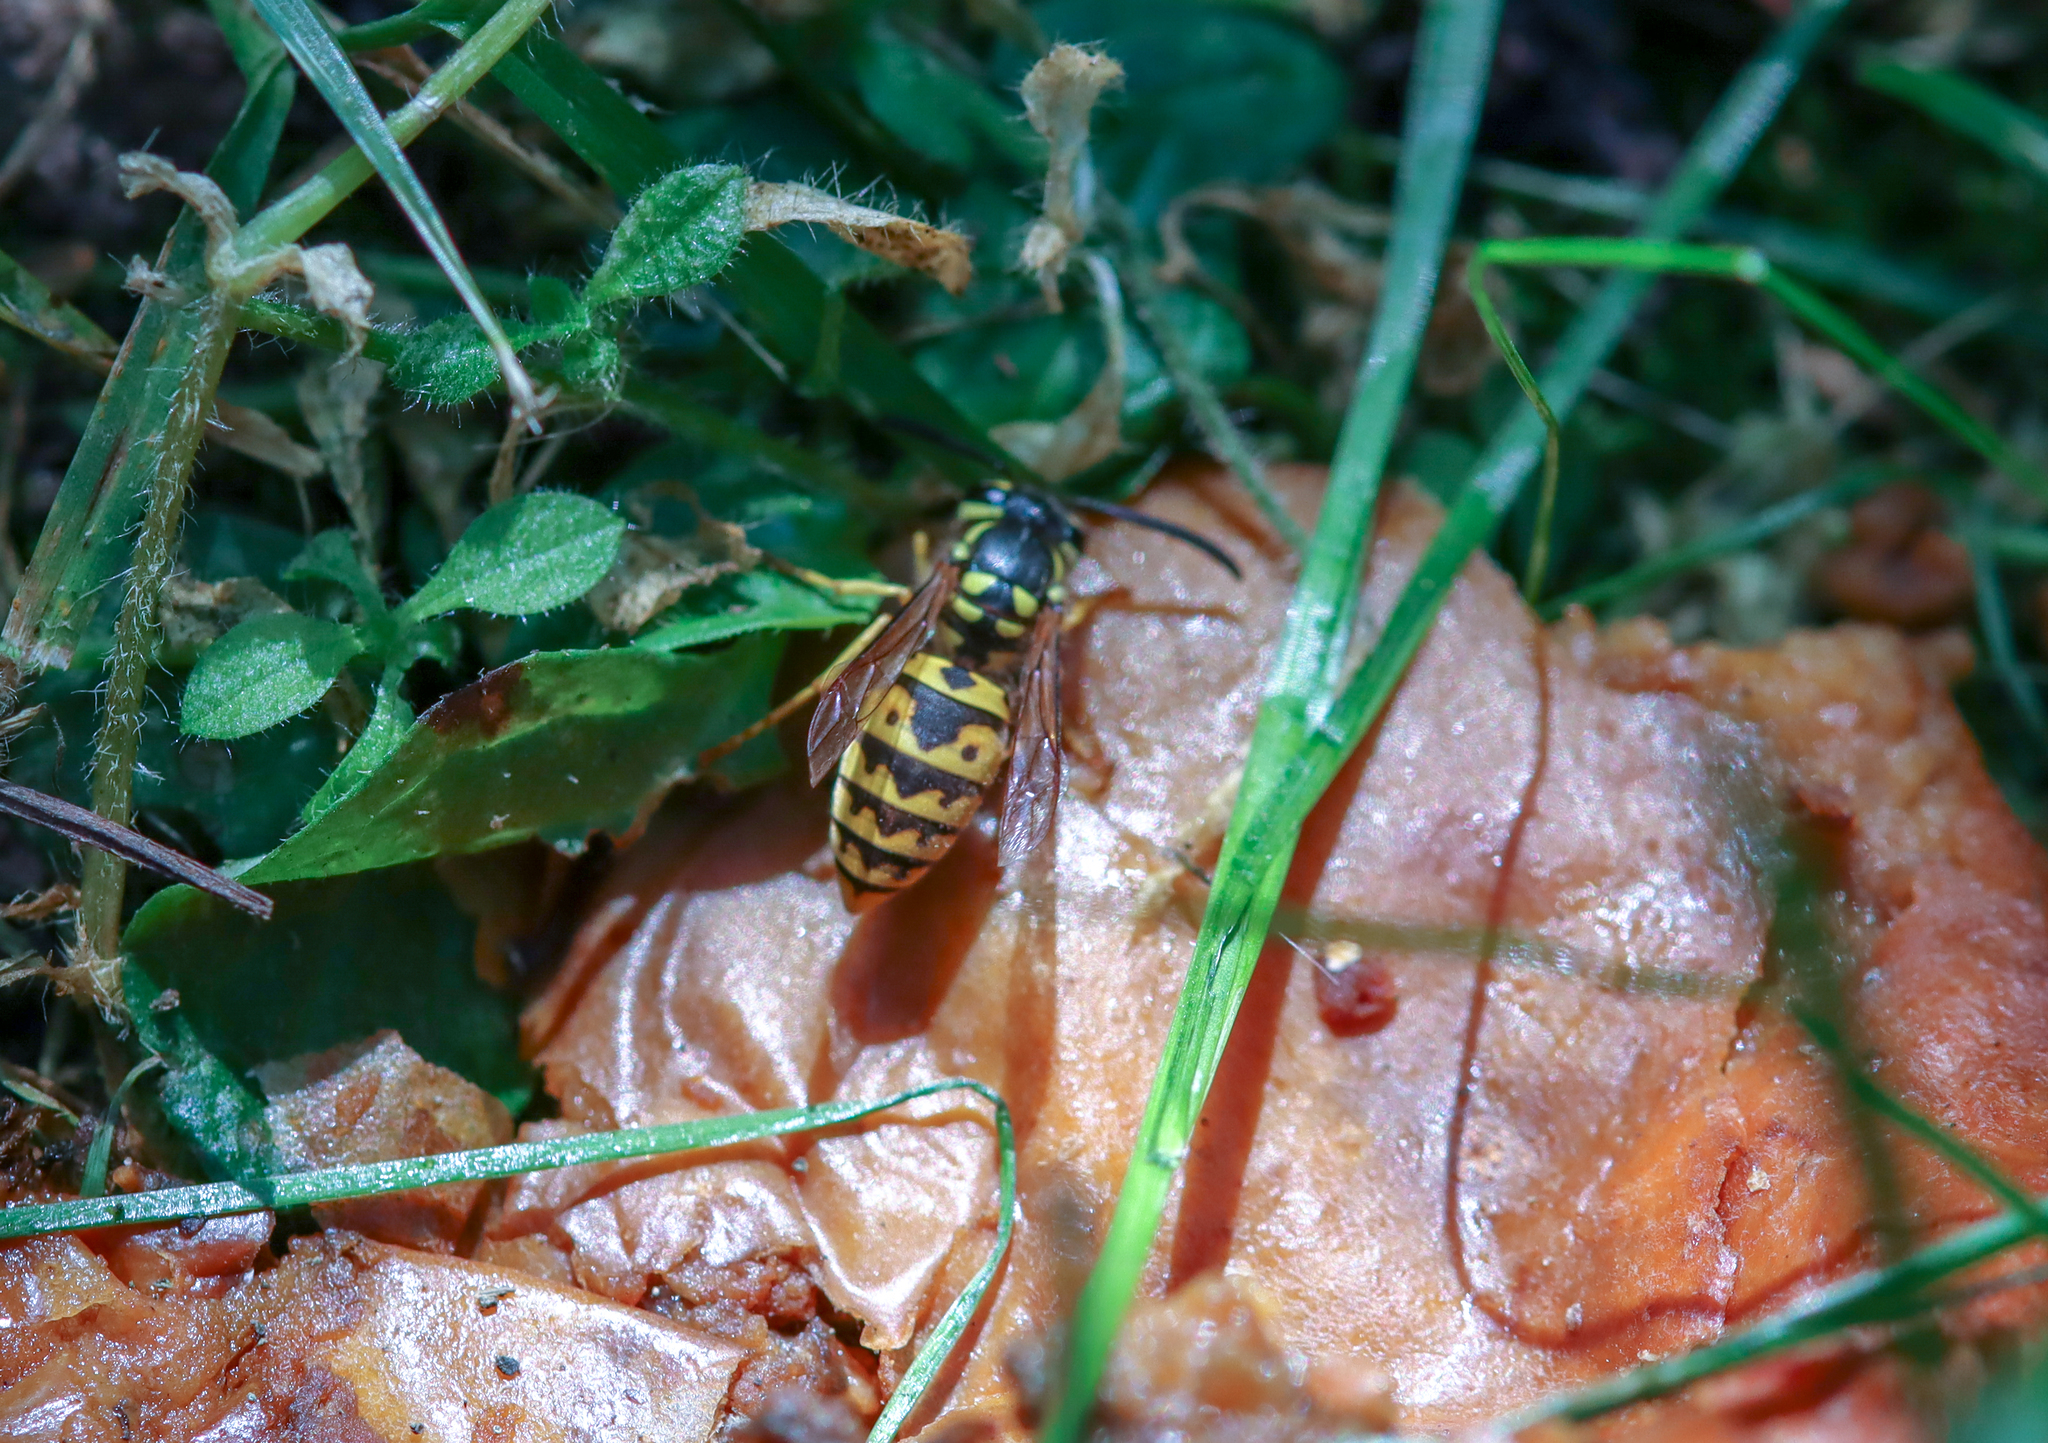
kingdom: Animalia
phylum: Arthropoda
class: Insecta
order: Hymenoptera
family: Vespidae
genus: Vespula
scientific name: Vespula germanica
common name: German wasp
